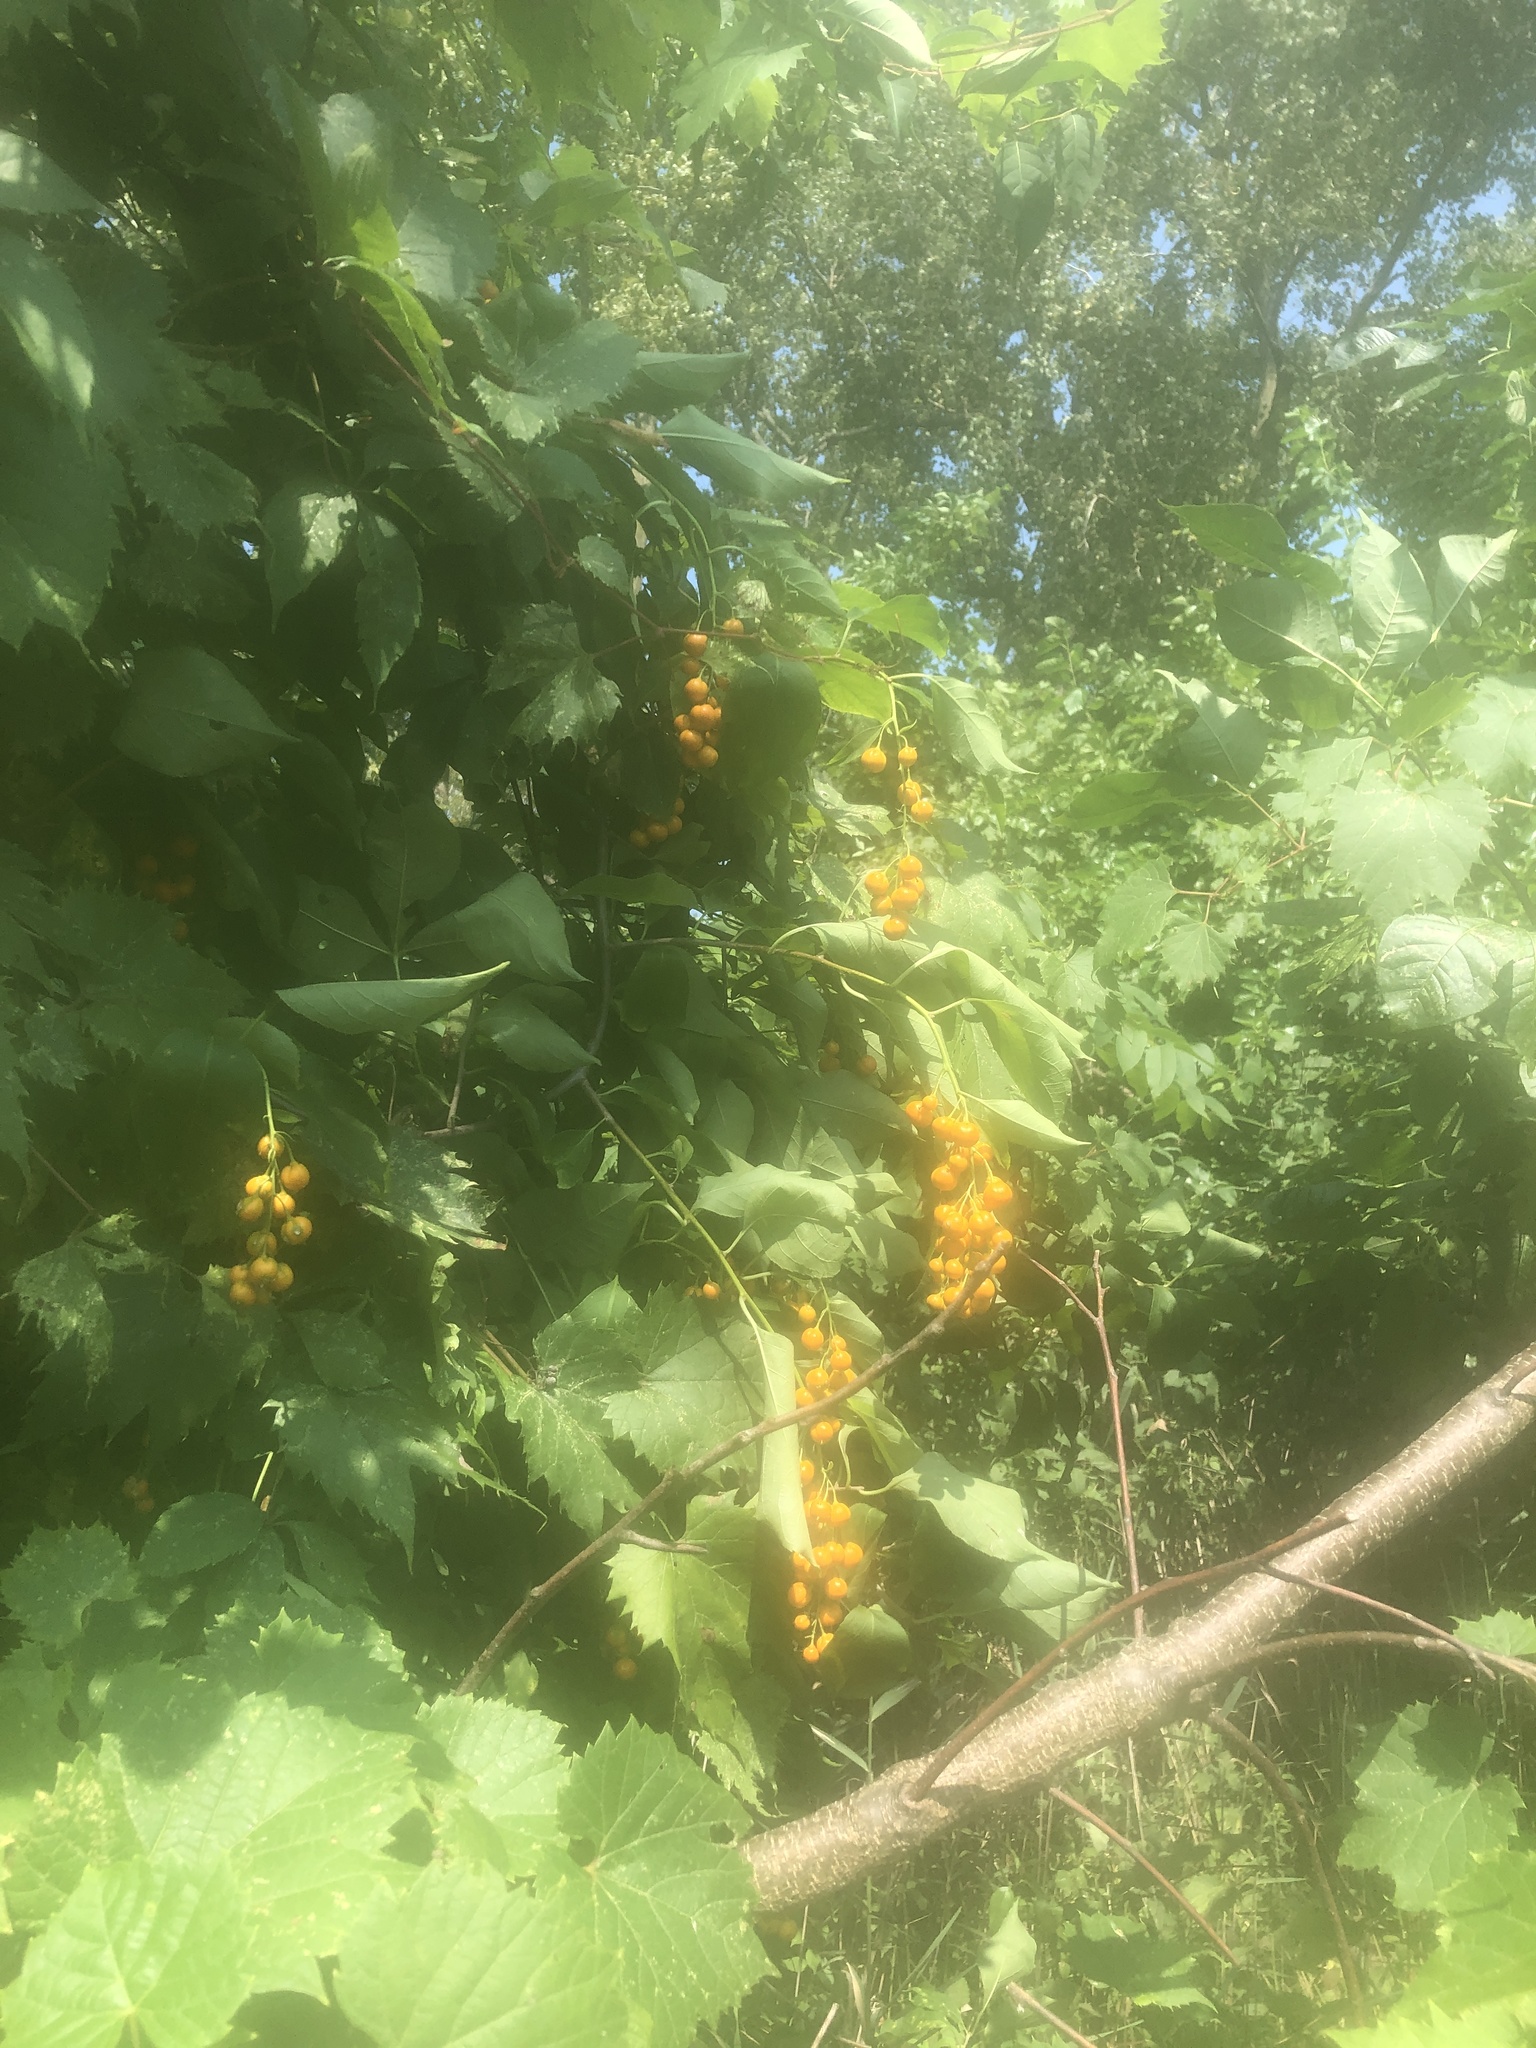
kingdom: Plantae
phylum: Tracheophyta
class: Magnoliopsida
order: Celastrales
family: Celastraceae
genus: Celastrus
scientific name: Celastrus scandens
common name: American bittersweet
